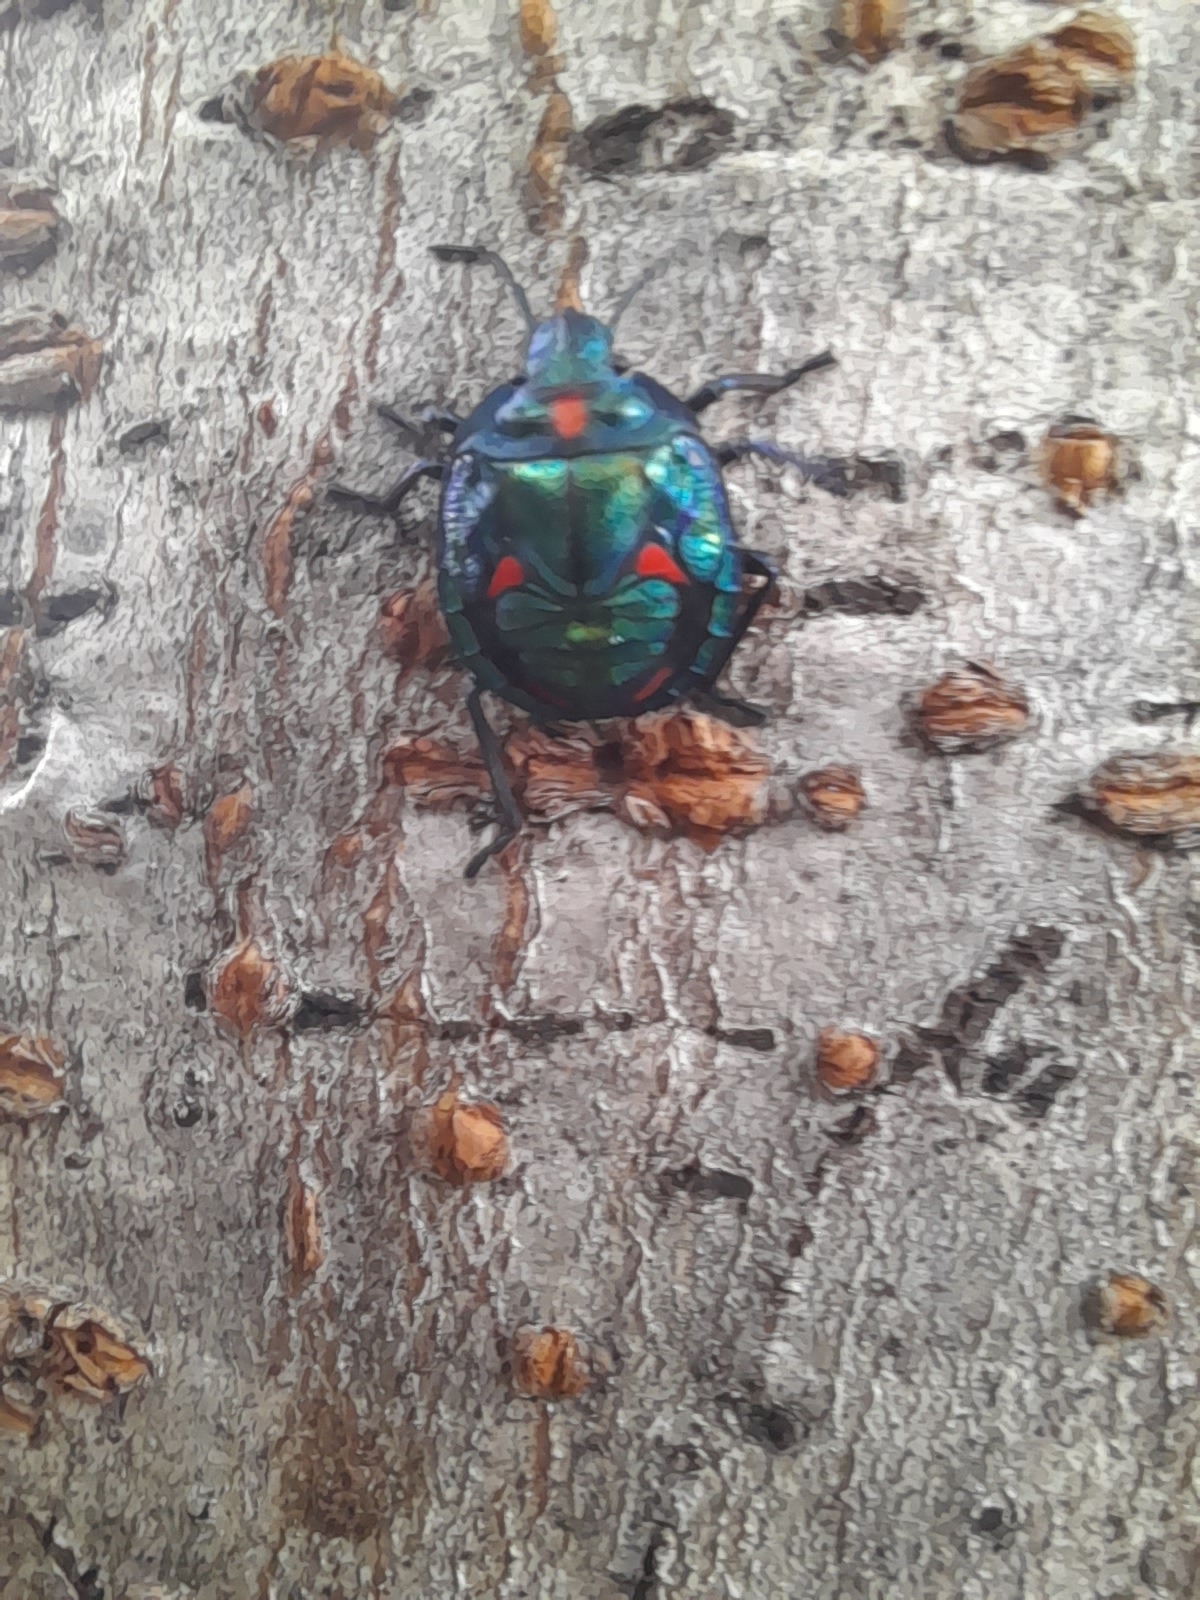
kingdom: Animalia
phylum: Arthropoda
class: Insecta
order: Hemiptera
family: Scutelleridae
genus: Tectocoris
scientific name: Tectocoris diophthalmus
